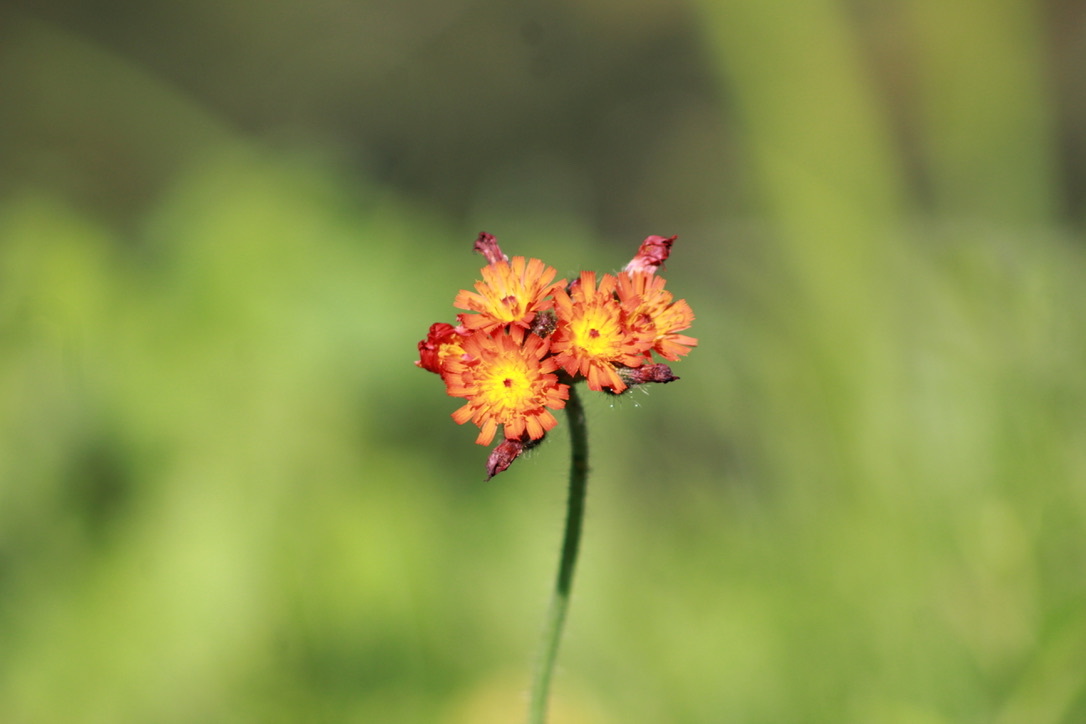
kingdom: Plantae
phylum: Tracheophyta
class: Magnoliopsida
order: Asterales
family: Asteraceae
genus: Pilosella
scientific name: Pilosella aurantiaca
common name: Fox-and-cubs
